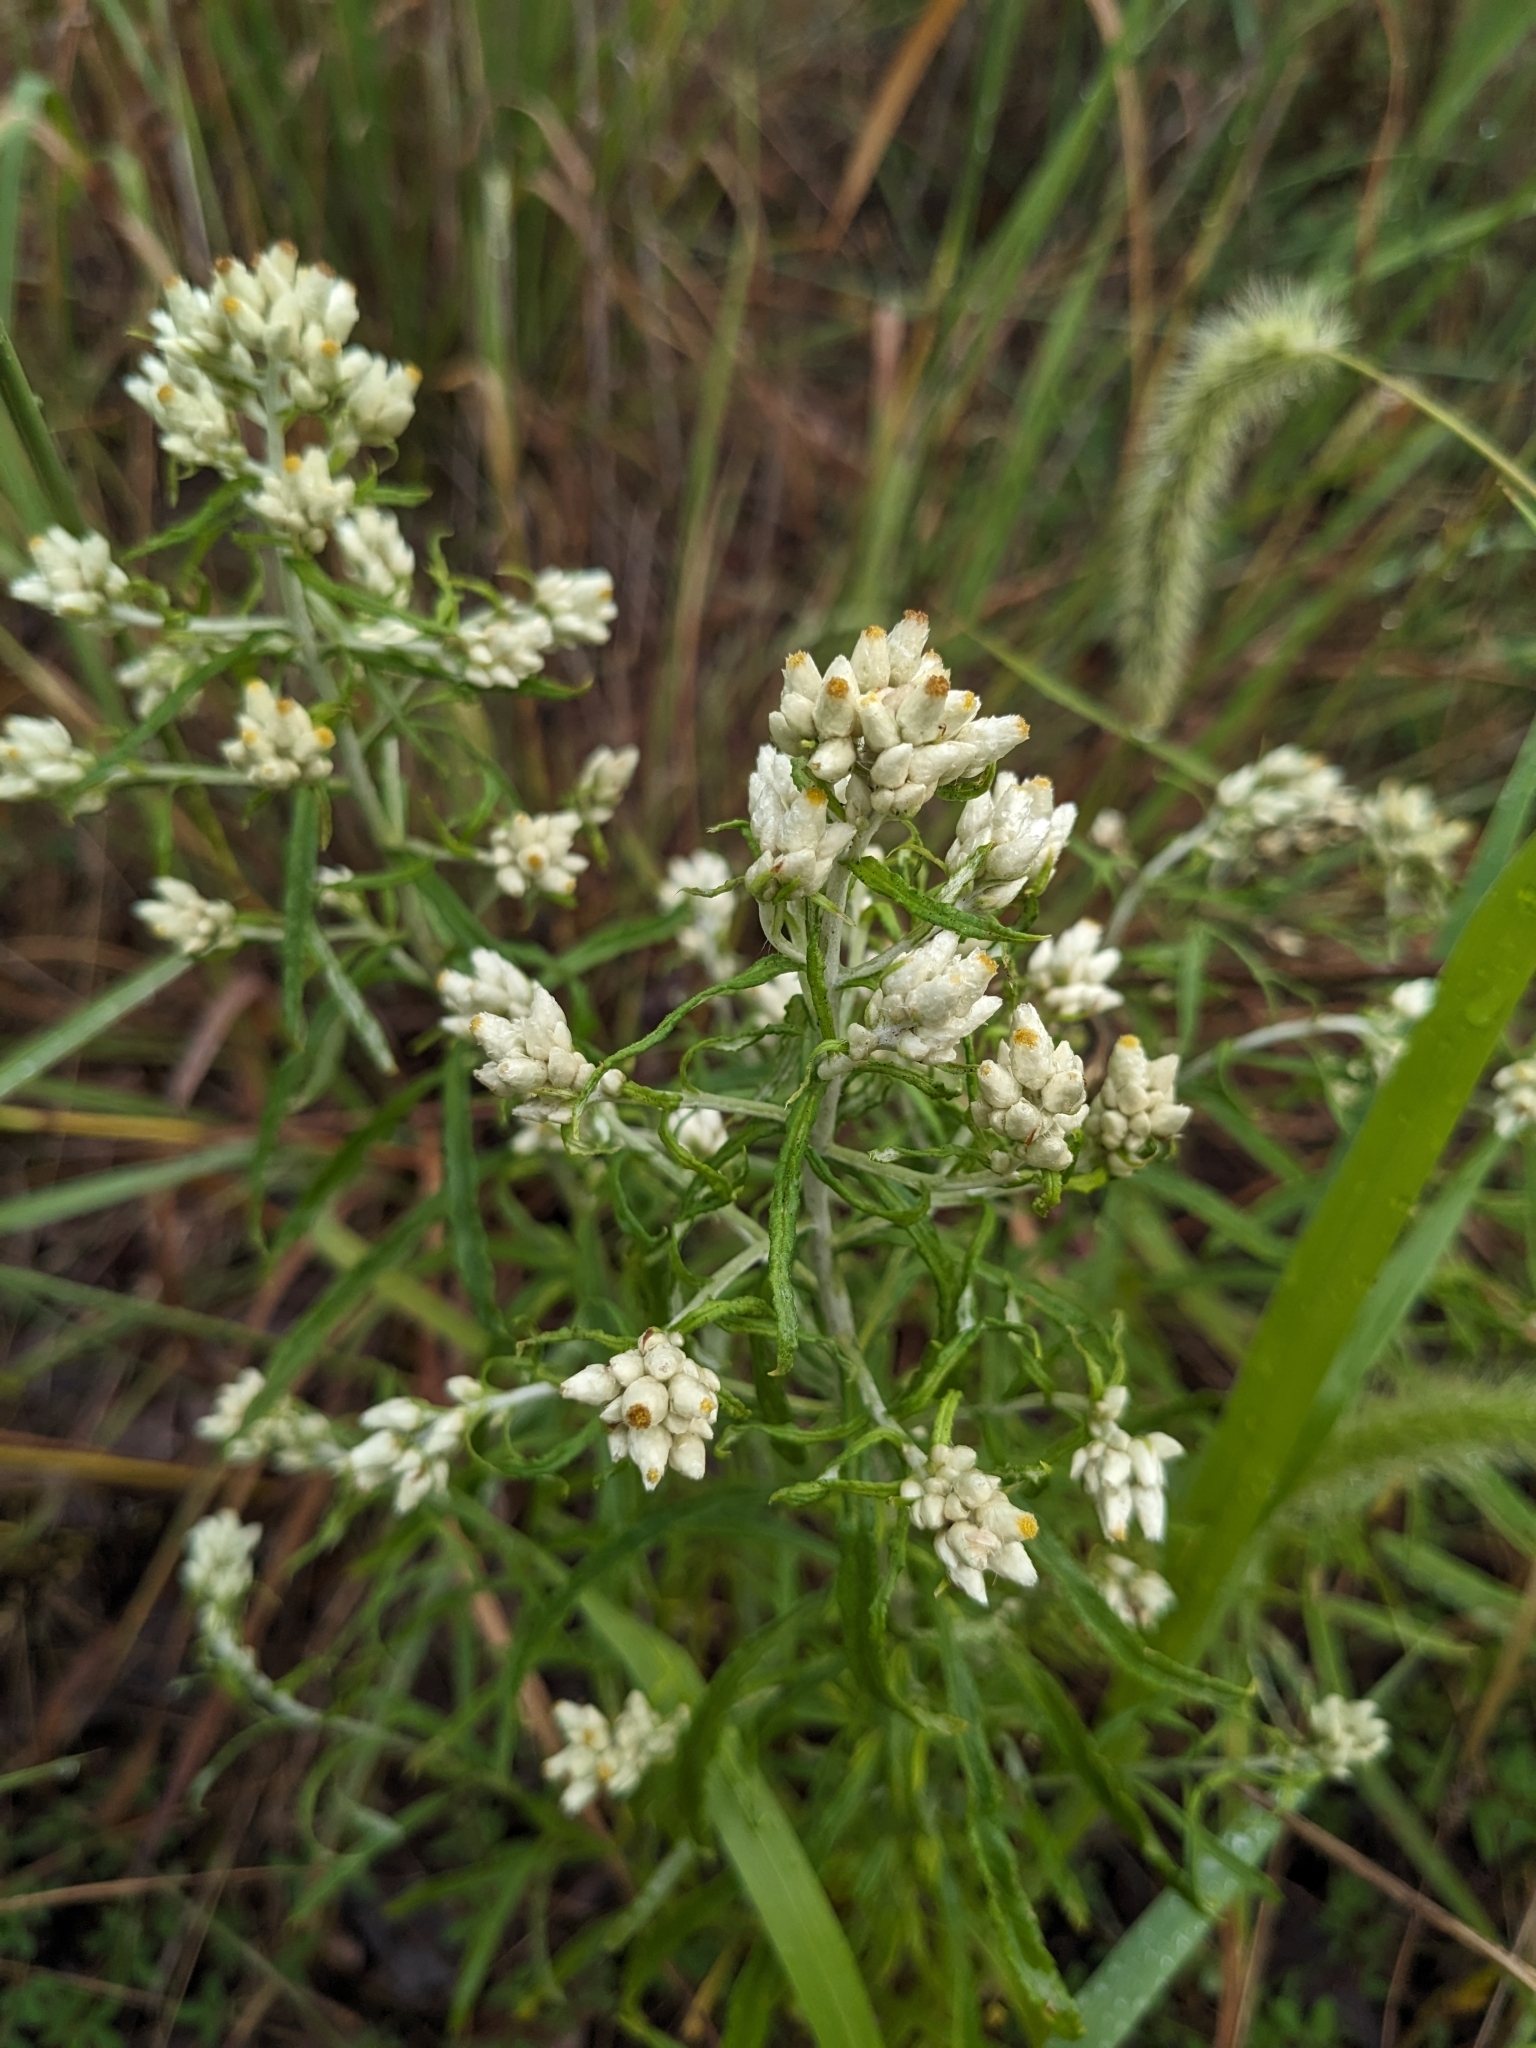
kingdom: Plantae
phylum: Tracheophyta
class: Magnoliopsida
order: Asterales
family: Asteraceae
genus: Pseudognaphalium
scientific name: Pseudognaphalium obtusifolium
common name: Eastern rabbit-tobacco
